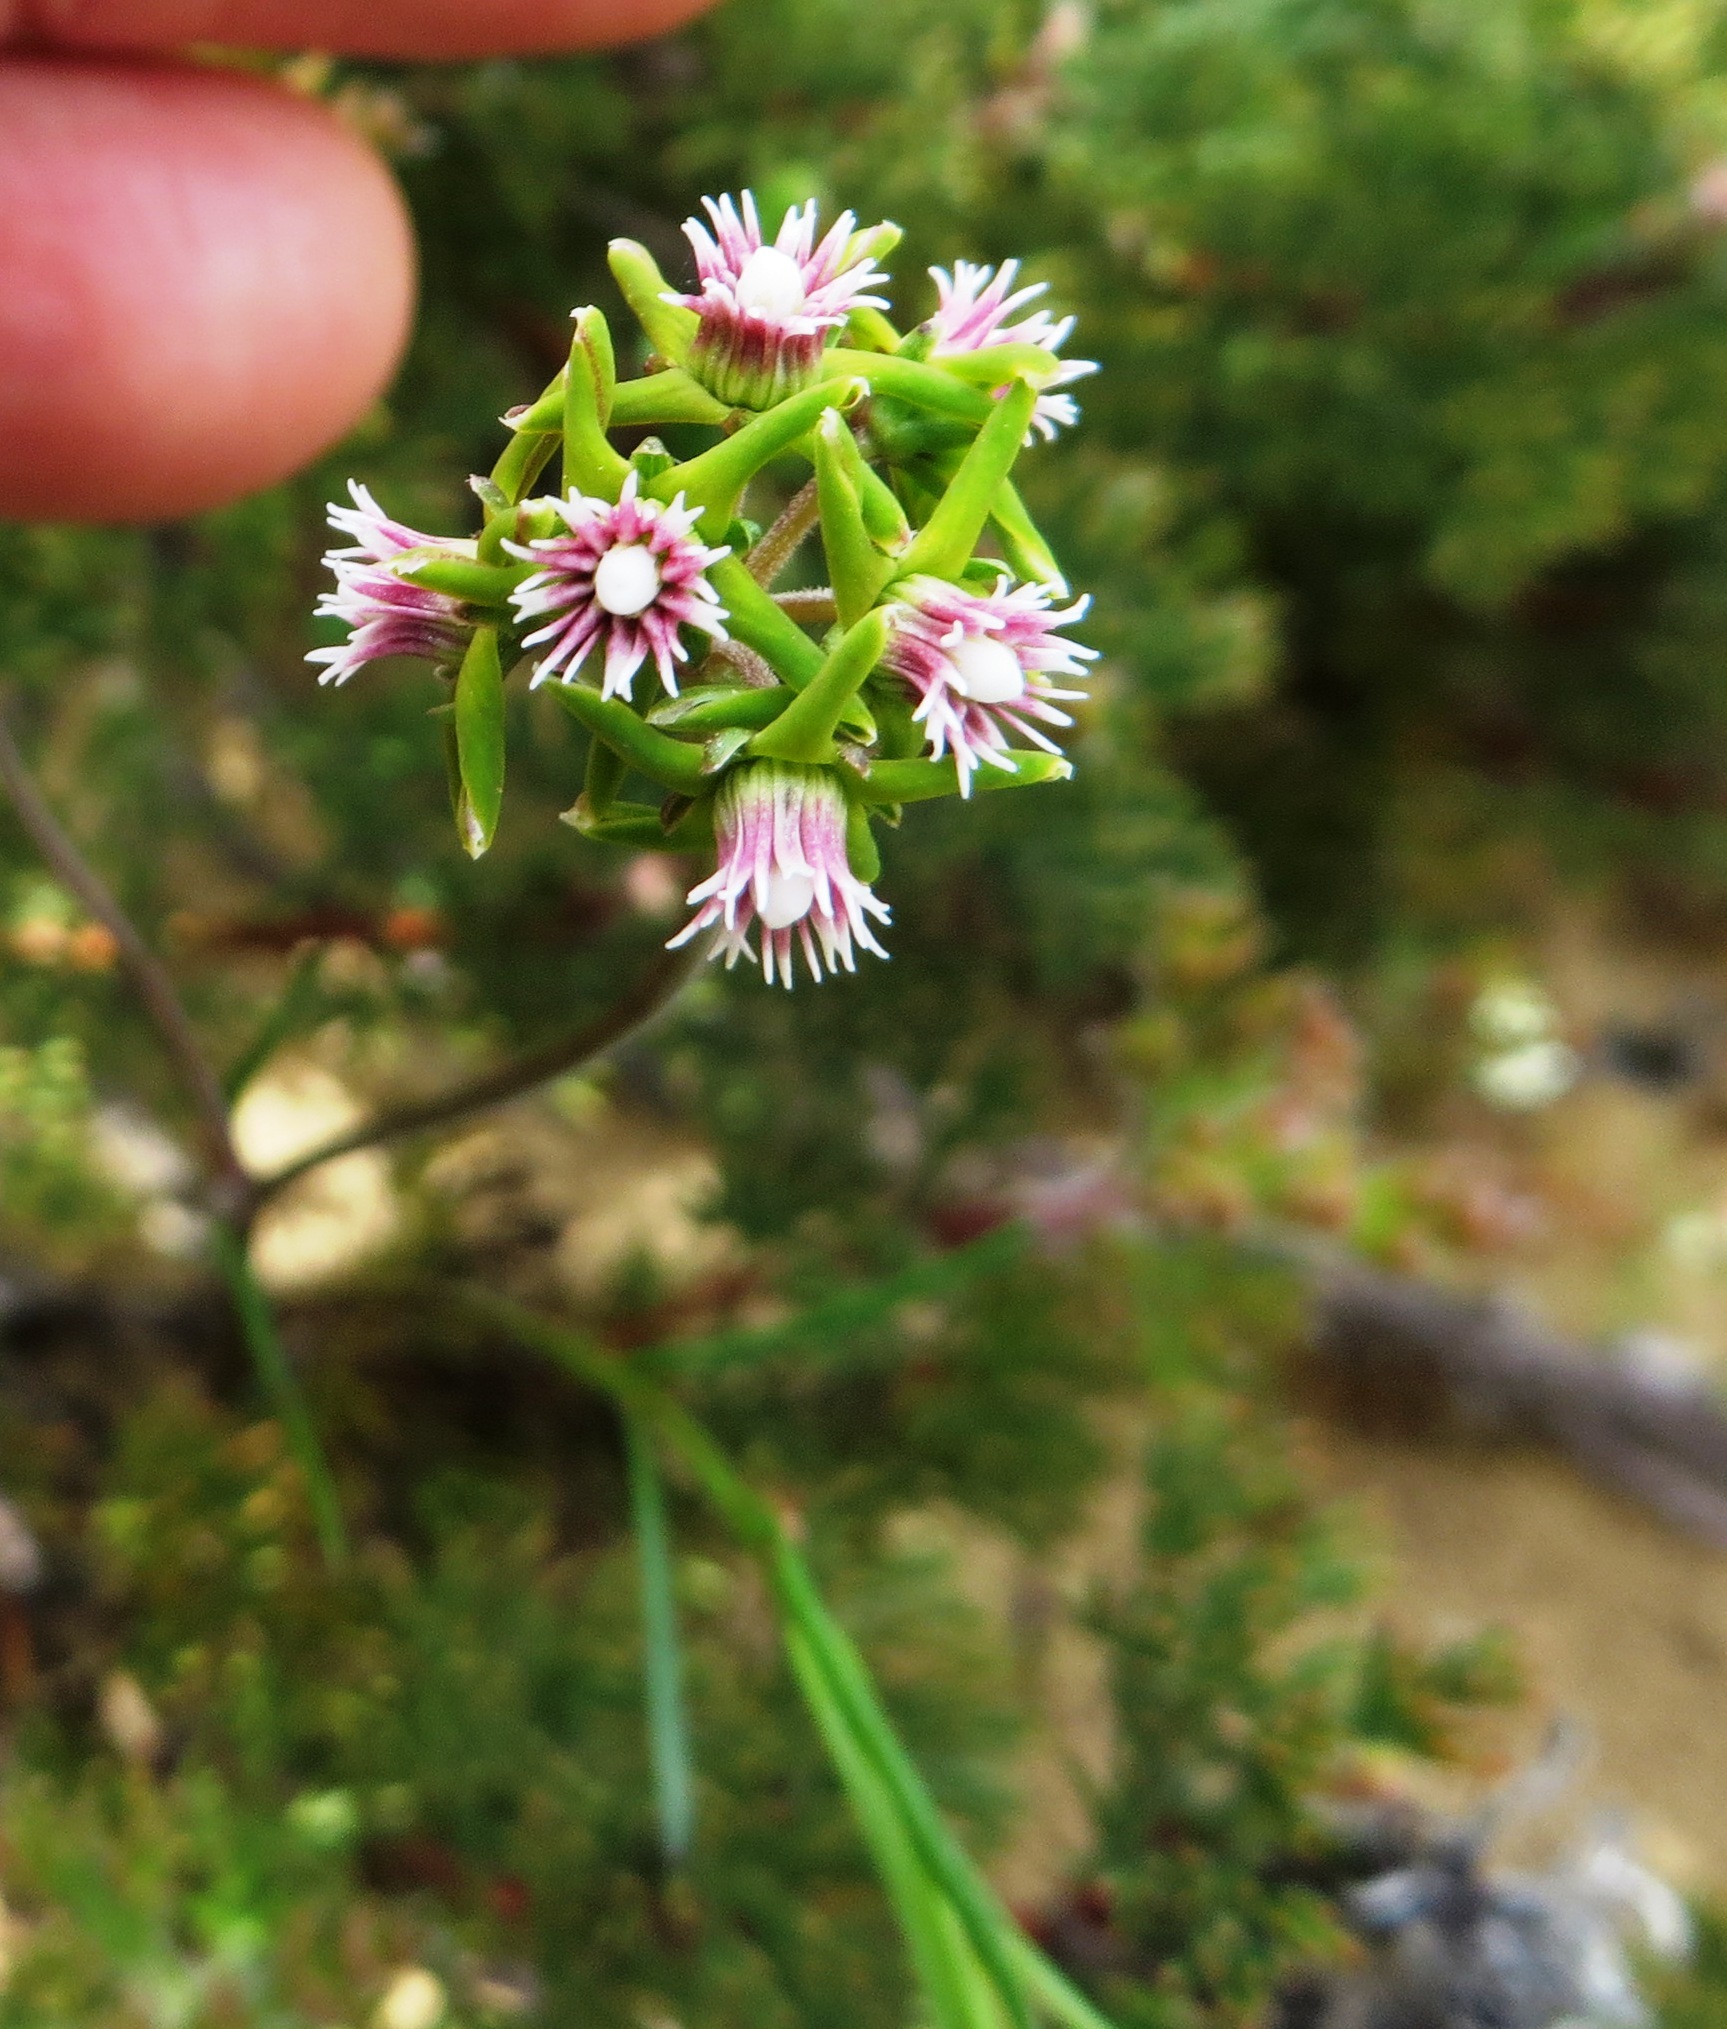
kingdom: Plantae
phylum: Tracheophyta
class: Magnoliopsida
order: Gentianales
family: Apocynaceae
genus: Eustegia
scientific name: Eustegia minuta
